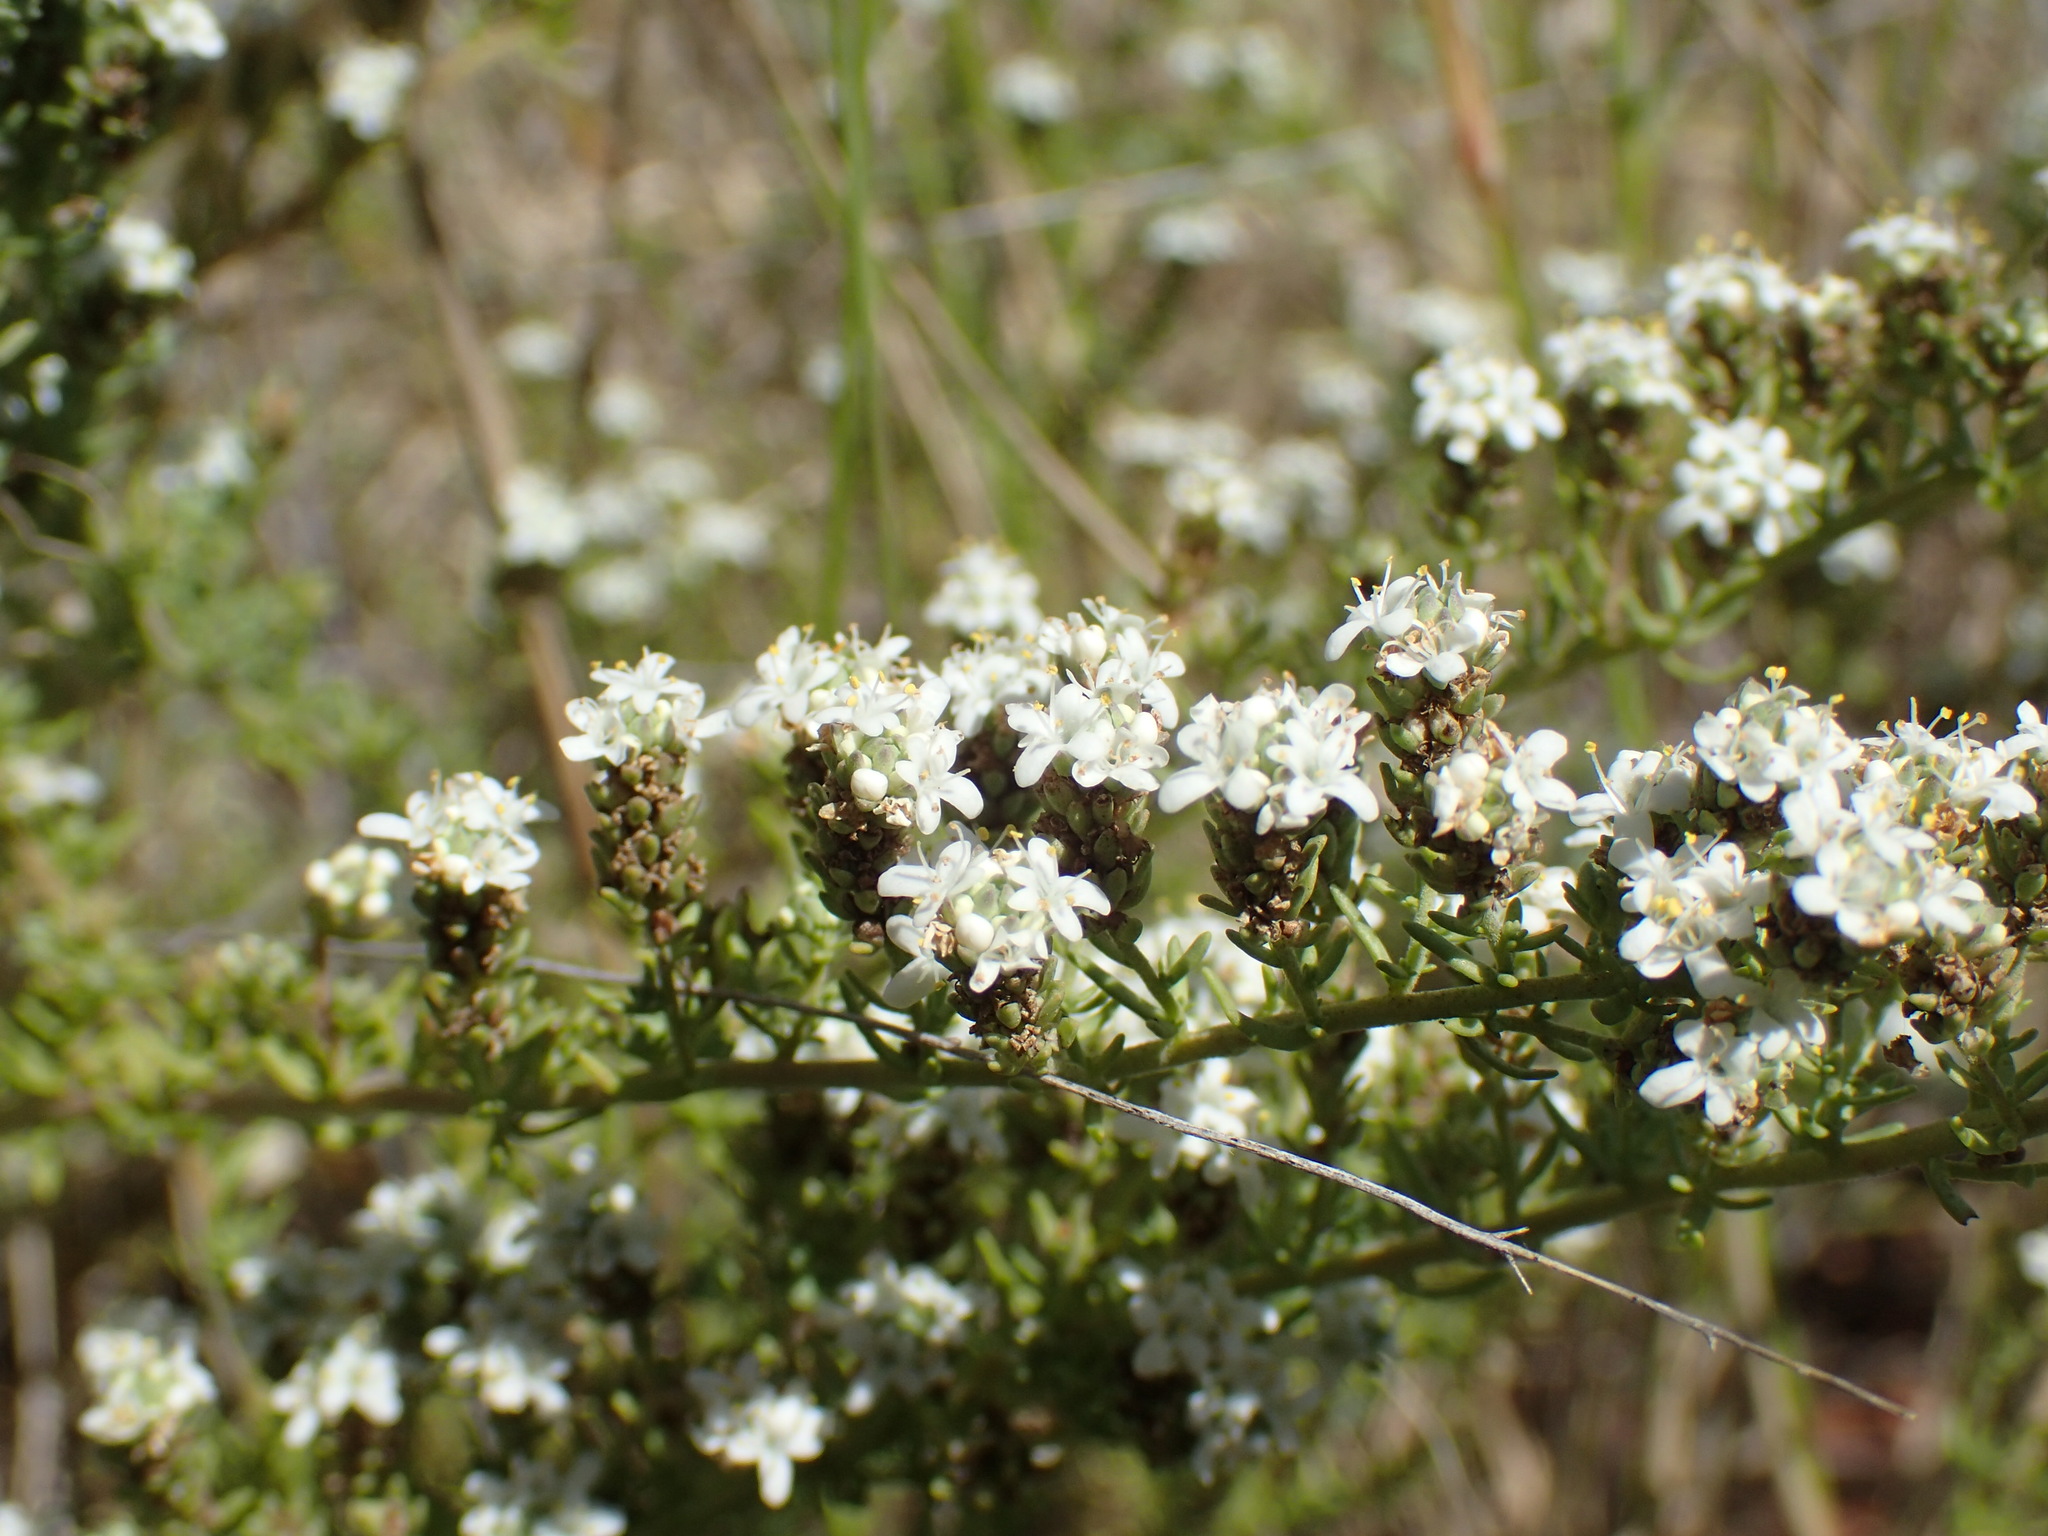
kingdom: Plantae
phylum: Tracheophyta
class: Magnoliopsida
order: Lamiales
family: Scrophulariaceae
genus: Selago
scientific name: Selago densiflora
